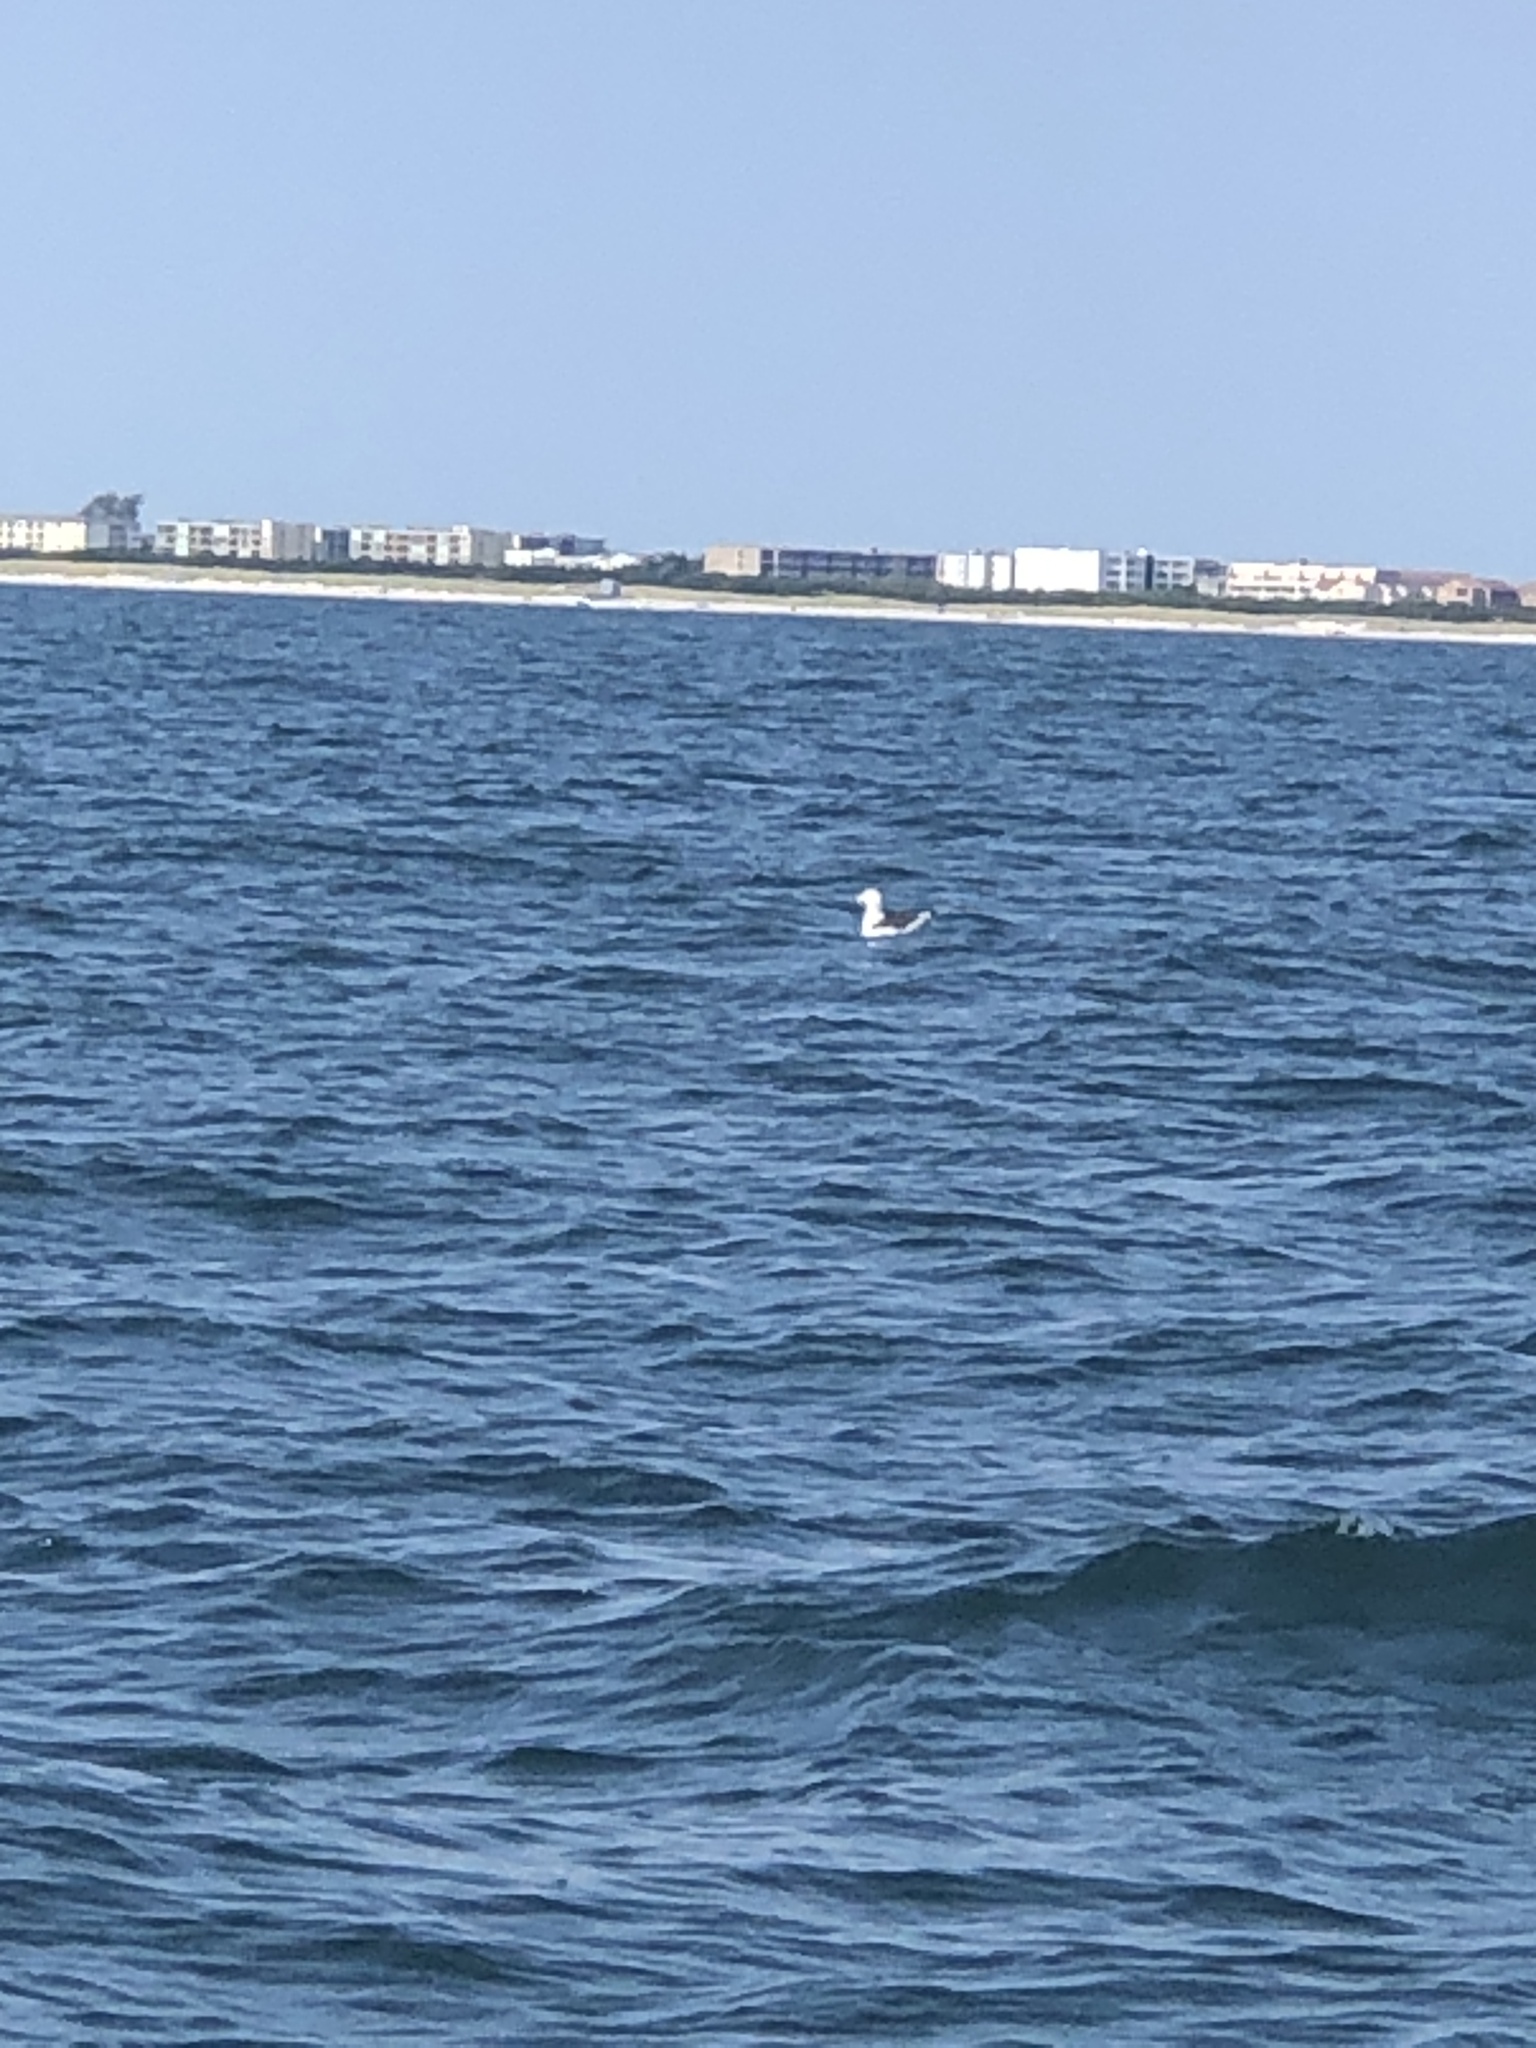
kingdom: Animalia
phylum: Chordata
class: Aves
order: Charadriiformes
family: Laridae
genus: Larus
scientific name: Larus marinus
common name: Great black-backed gull
